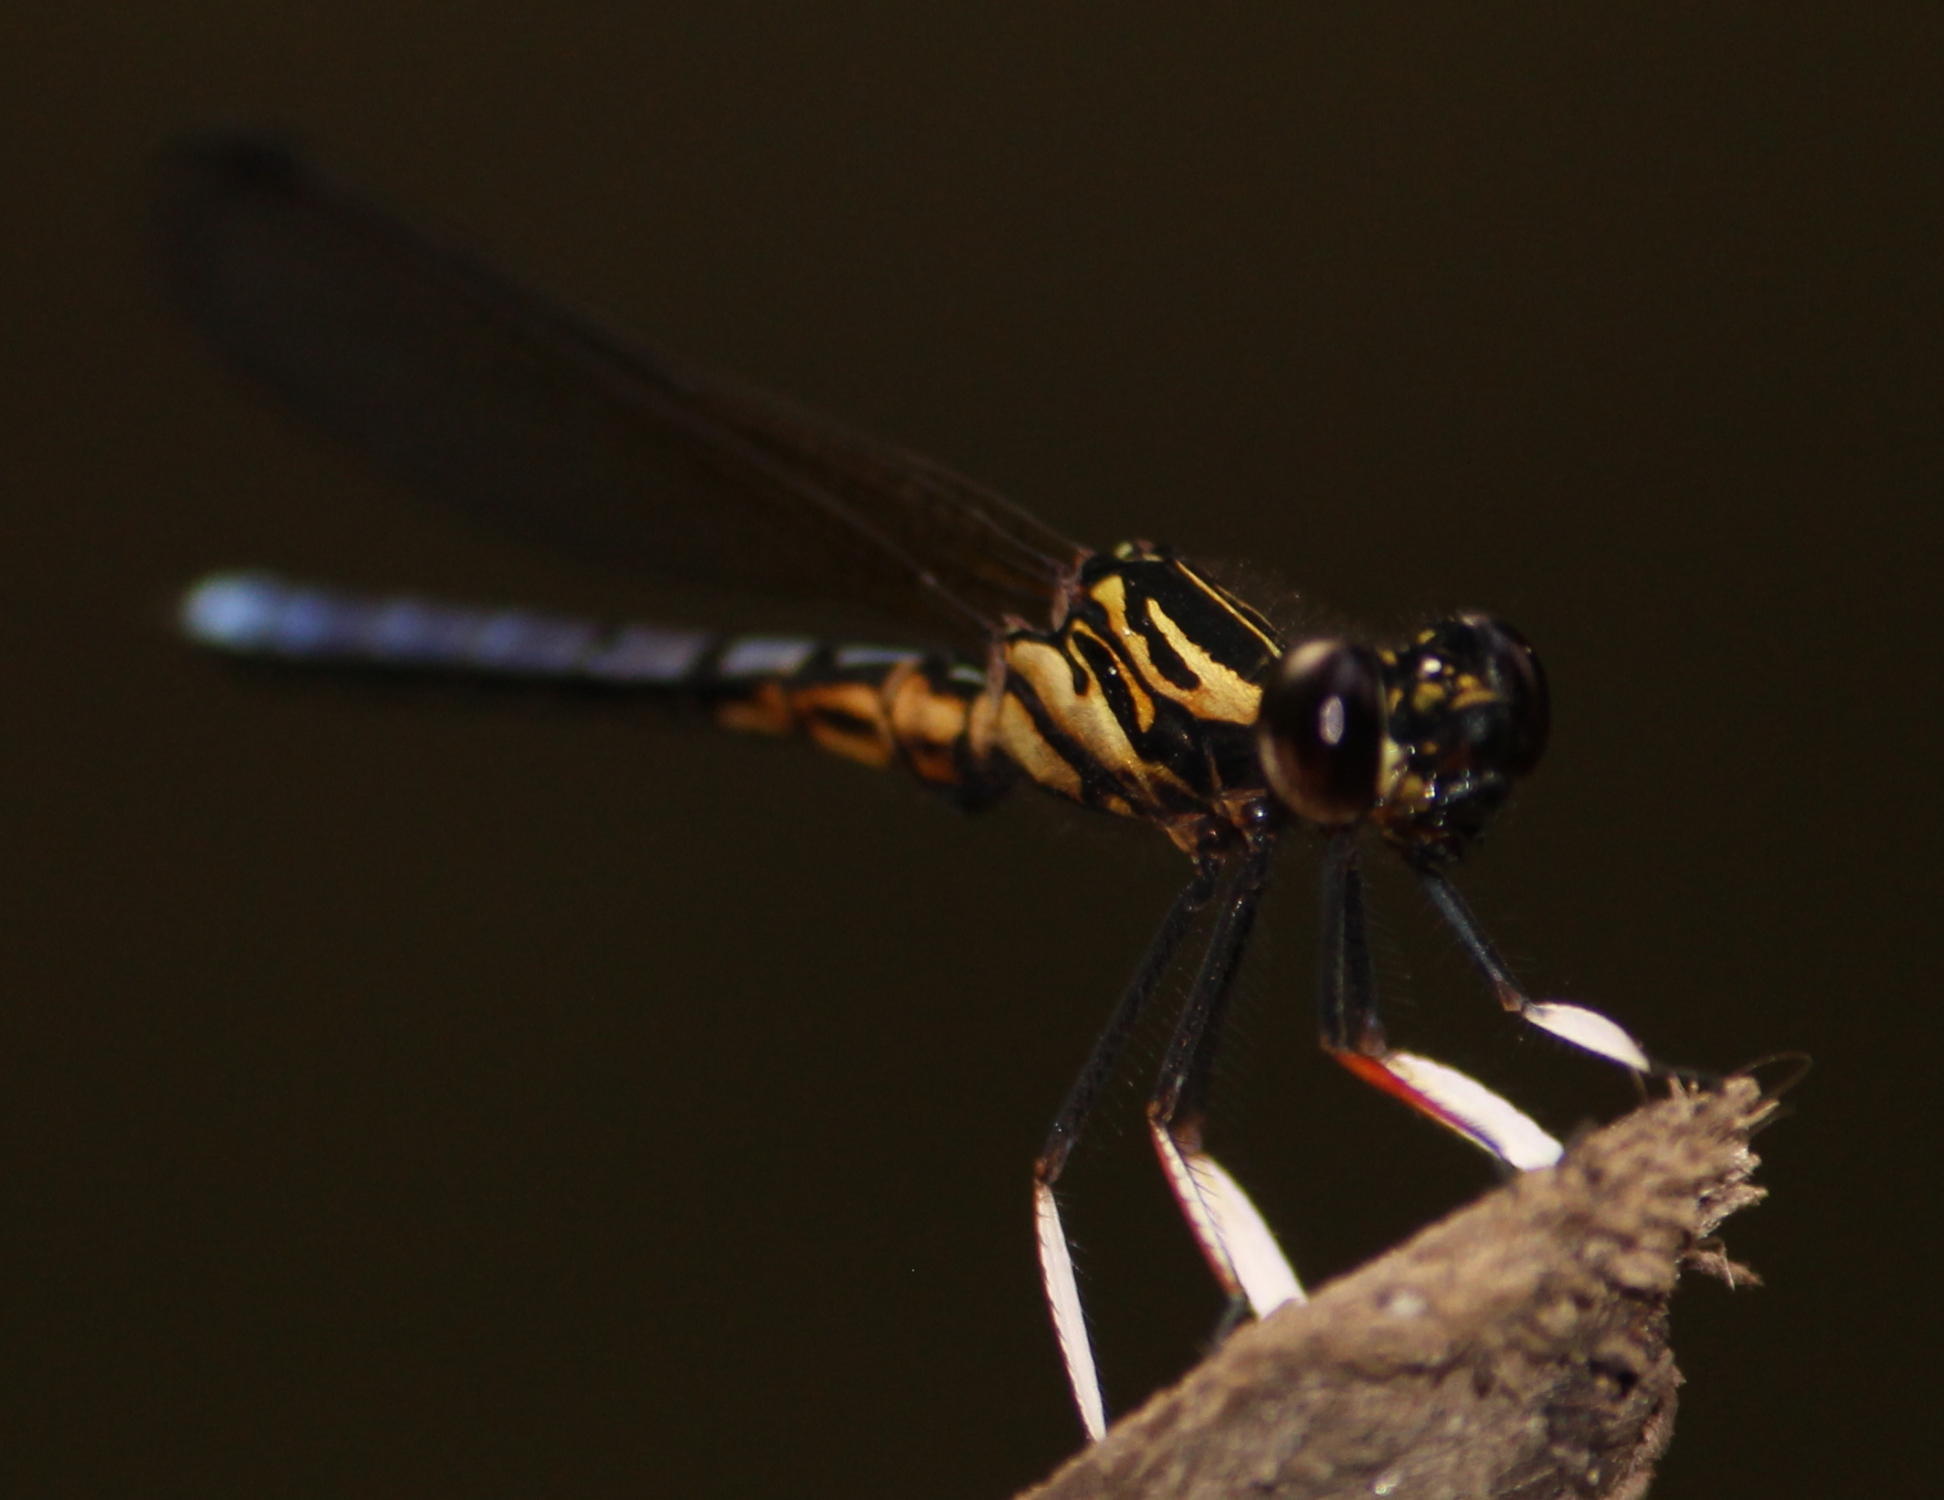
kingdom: Animalia
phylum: Arthropoda
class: Insecta
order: Odonata
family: Chlorocyphidae
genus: Platycypha
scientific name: Platycypha caligata
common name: Dancing jewel
